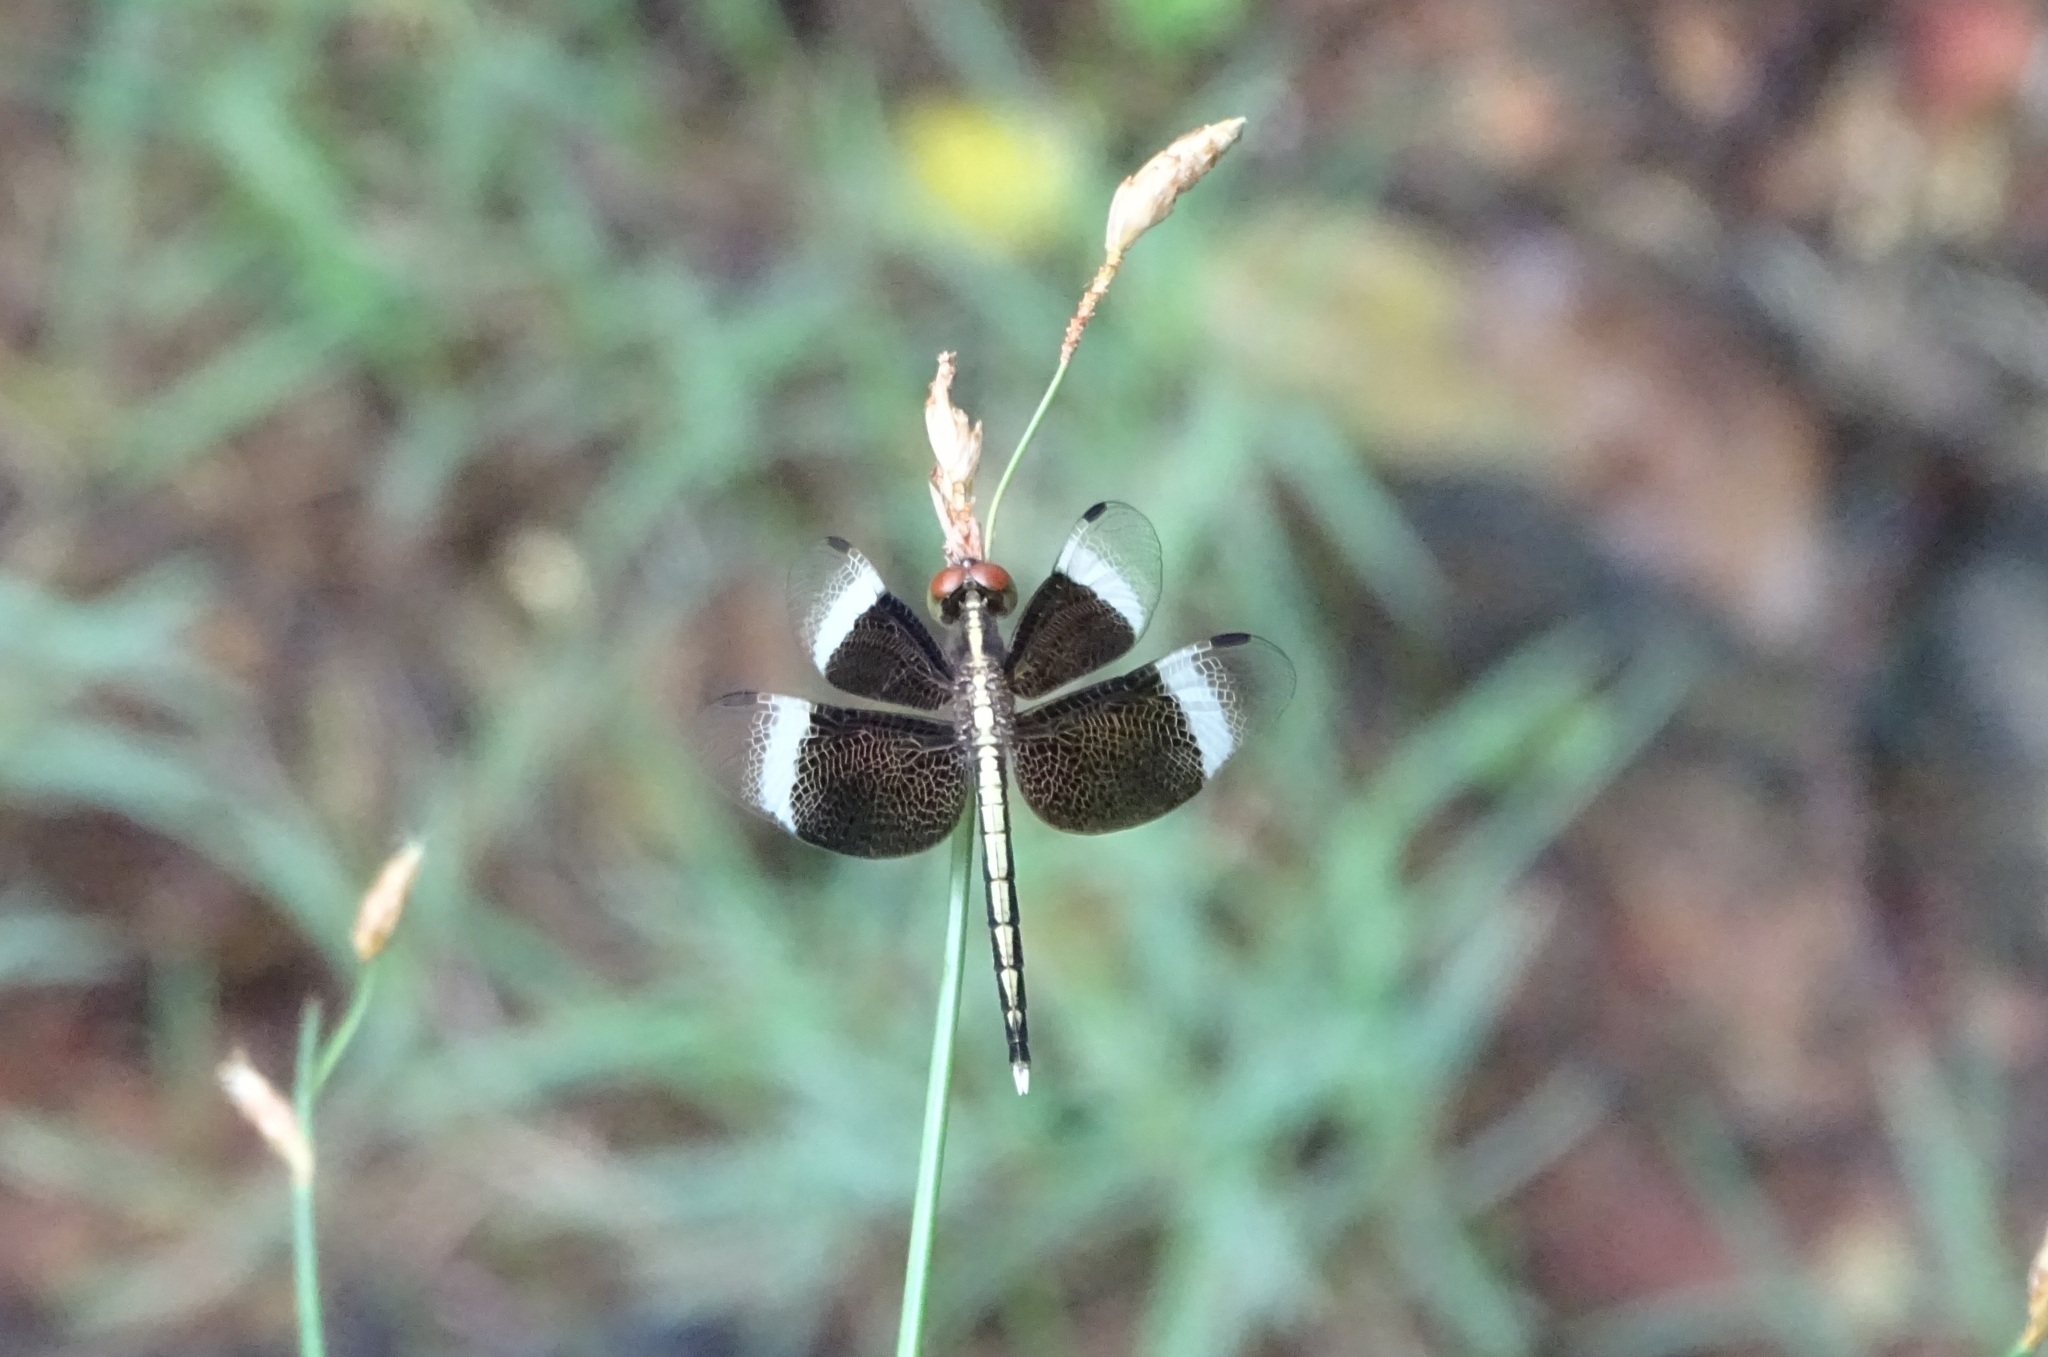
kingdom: Animalia
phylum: Arthropoda
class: Insecta
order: Odonata
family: Libellulidae
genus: Neurothemis
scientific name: Neurothemis tullia
